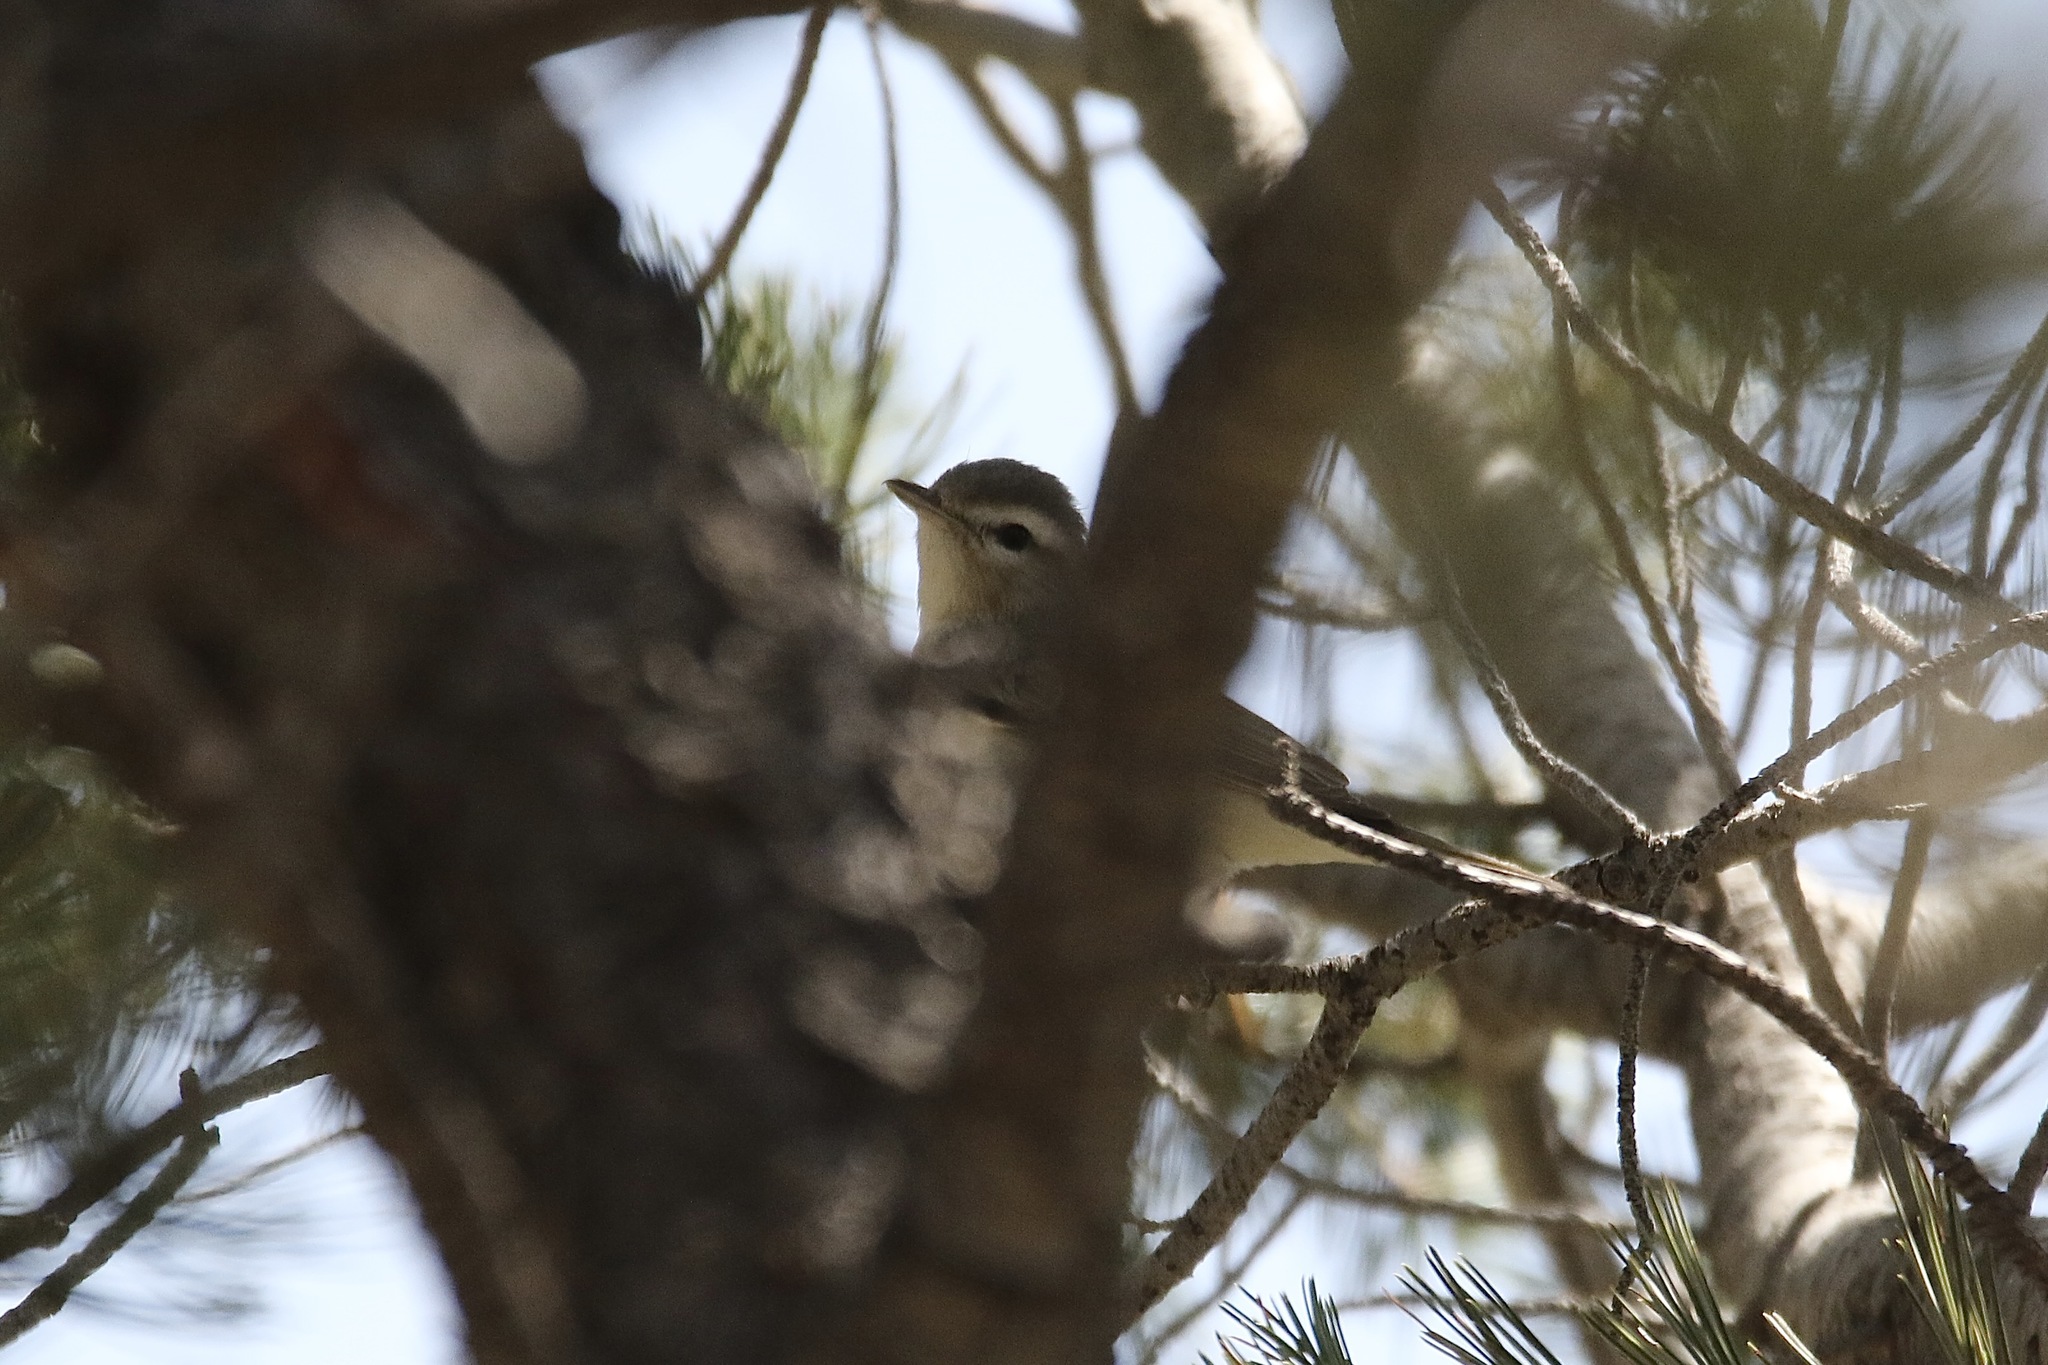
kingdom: Animalia
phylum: Chordata
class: Aves
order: Passeriformes
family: Vireonidae
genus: Vireo
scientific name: Vireo gilvus
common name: Warbling vireo
